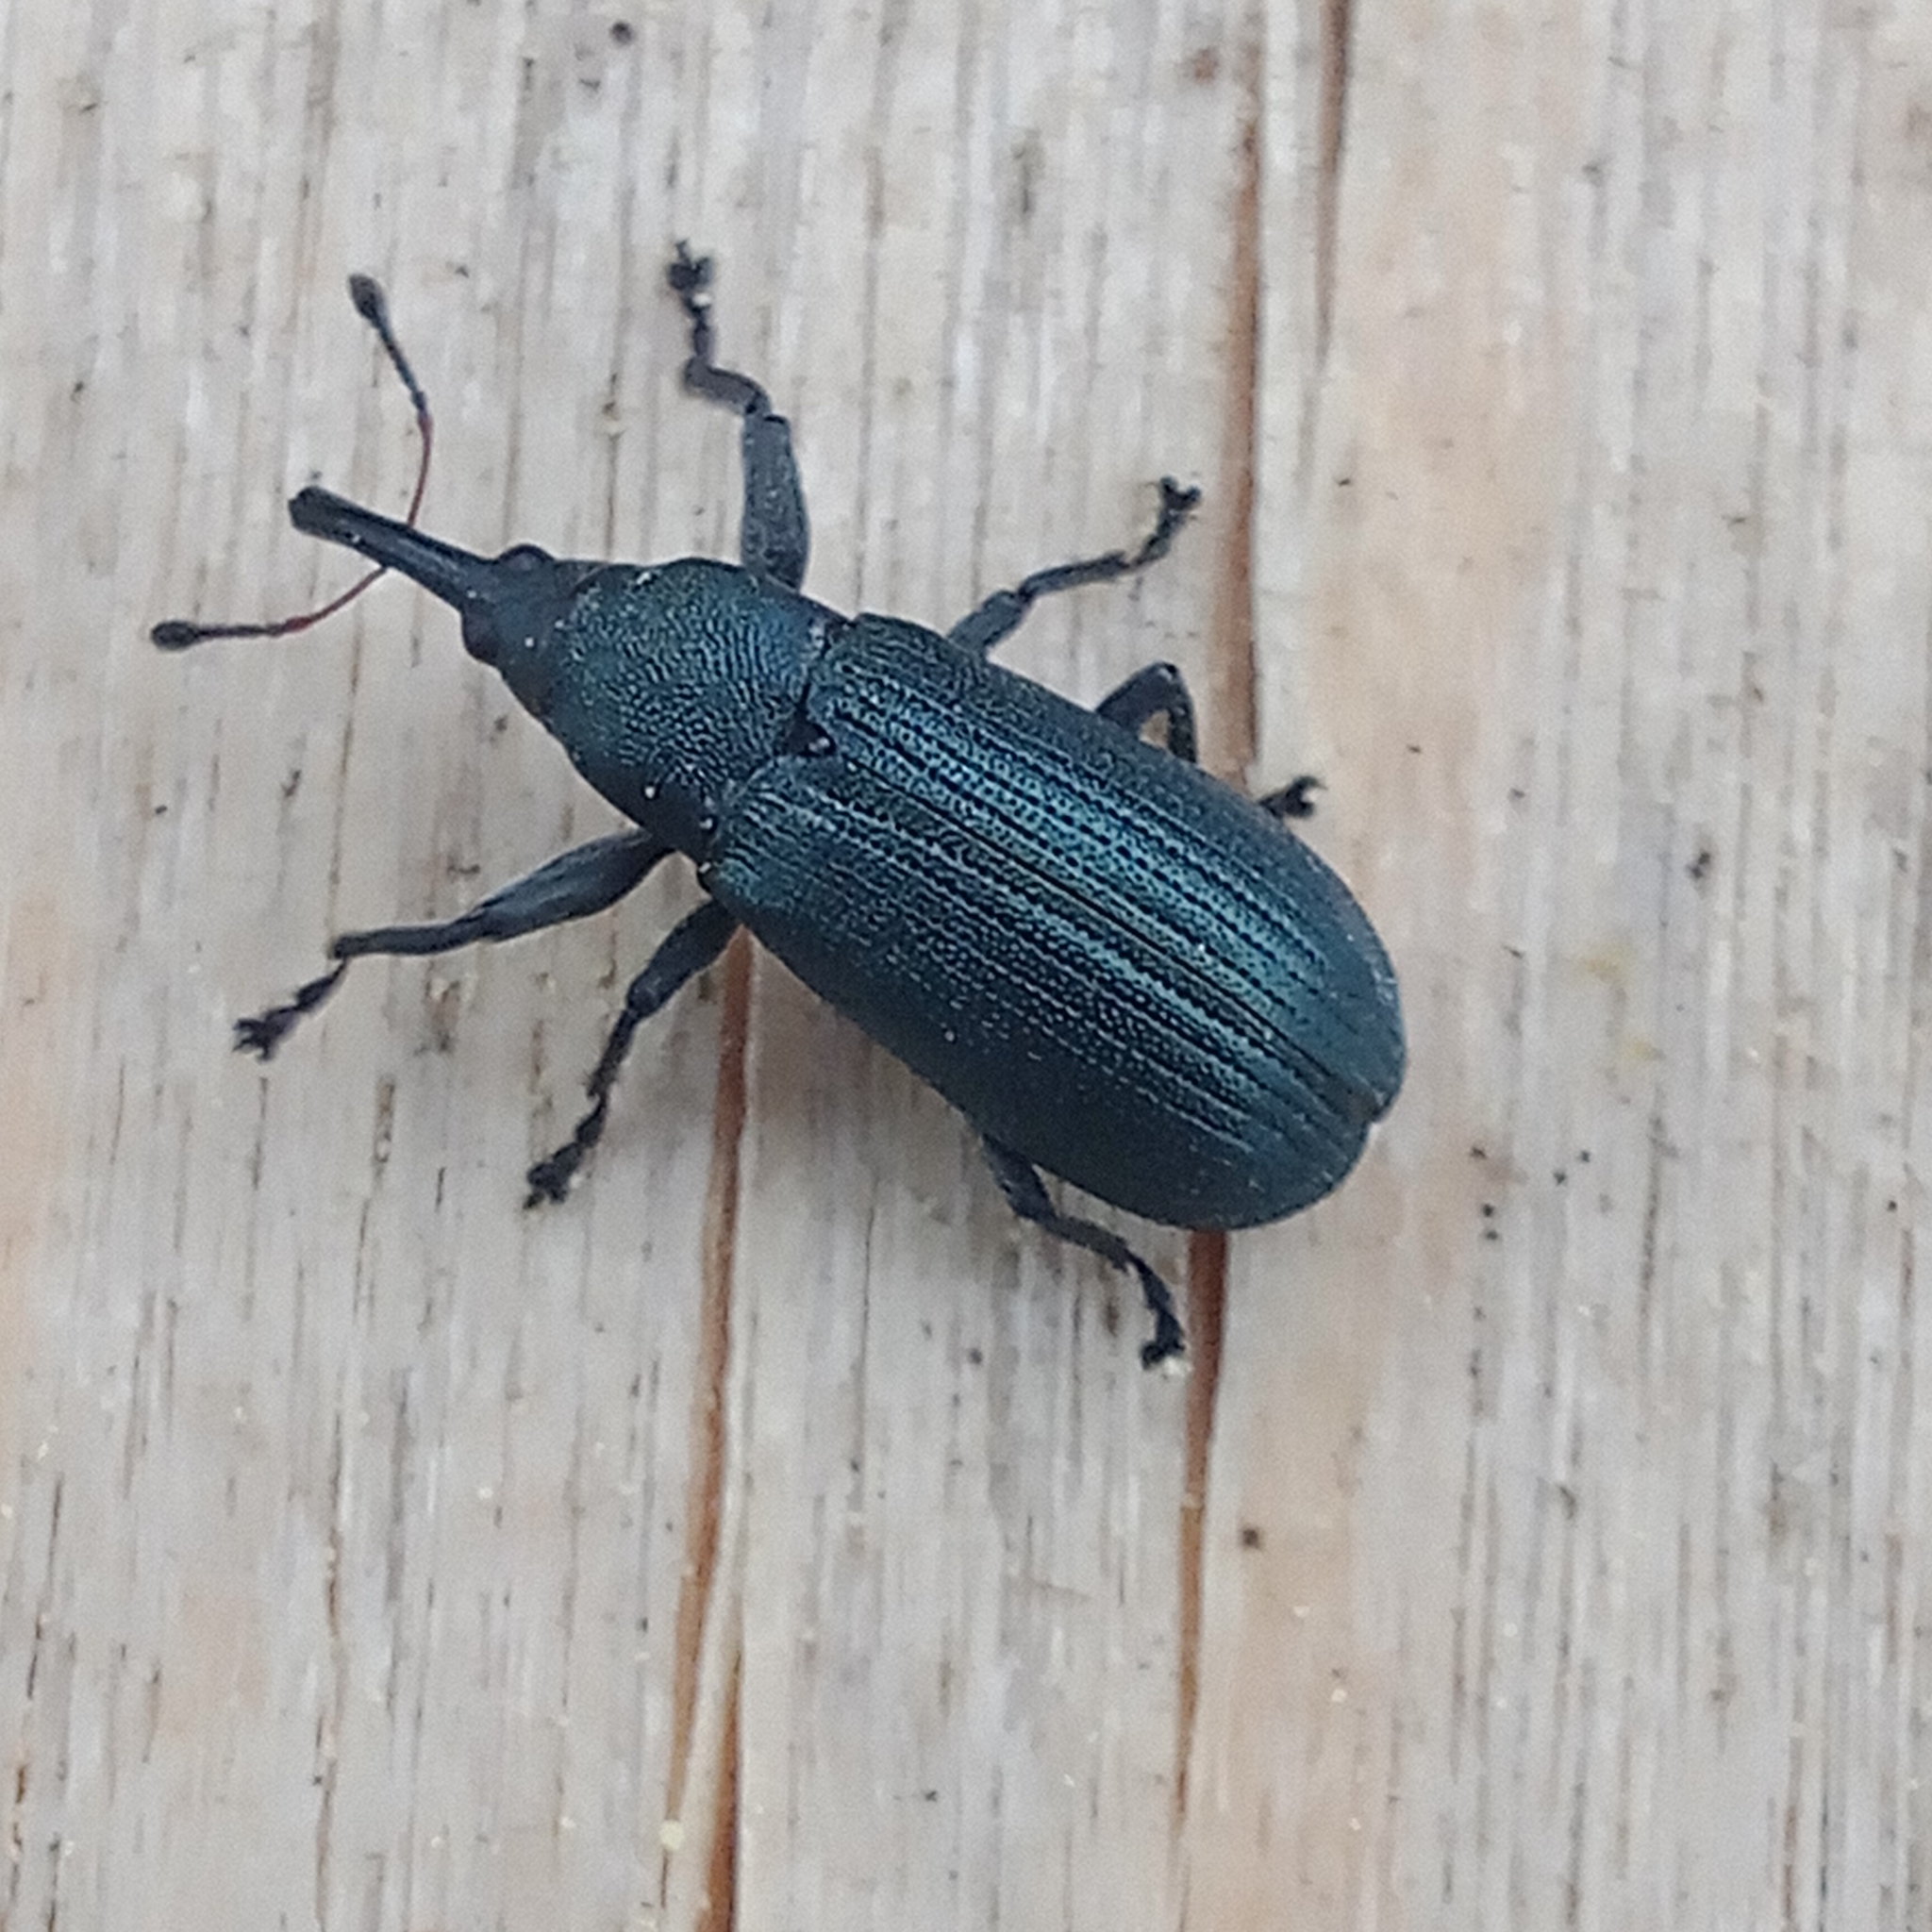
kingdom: Animalia
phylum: Arthropoda
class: Insecta
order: Coleoptera
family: Curculionidae
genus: Magdalis
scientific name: Magdalis phlegmatica
